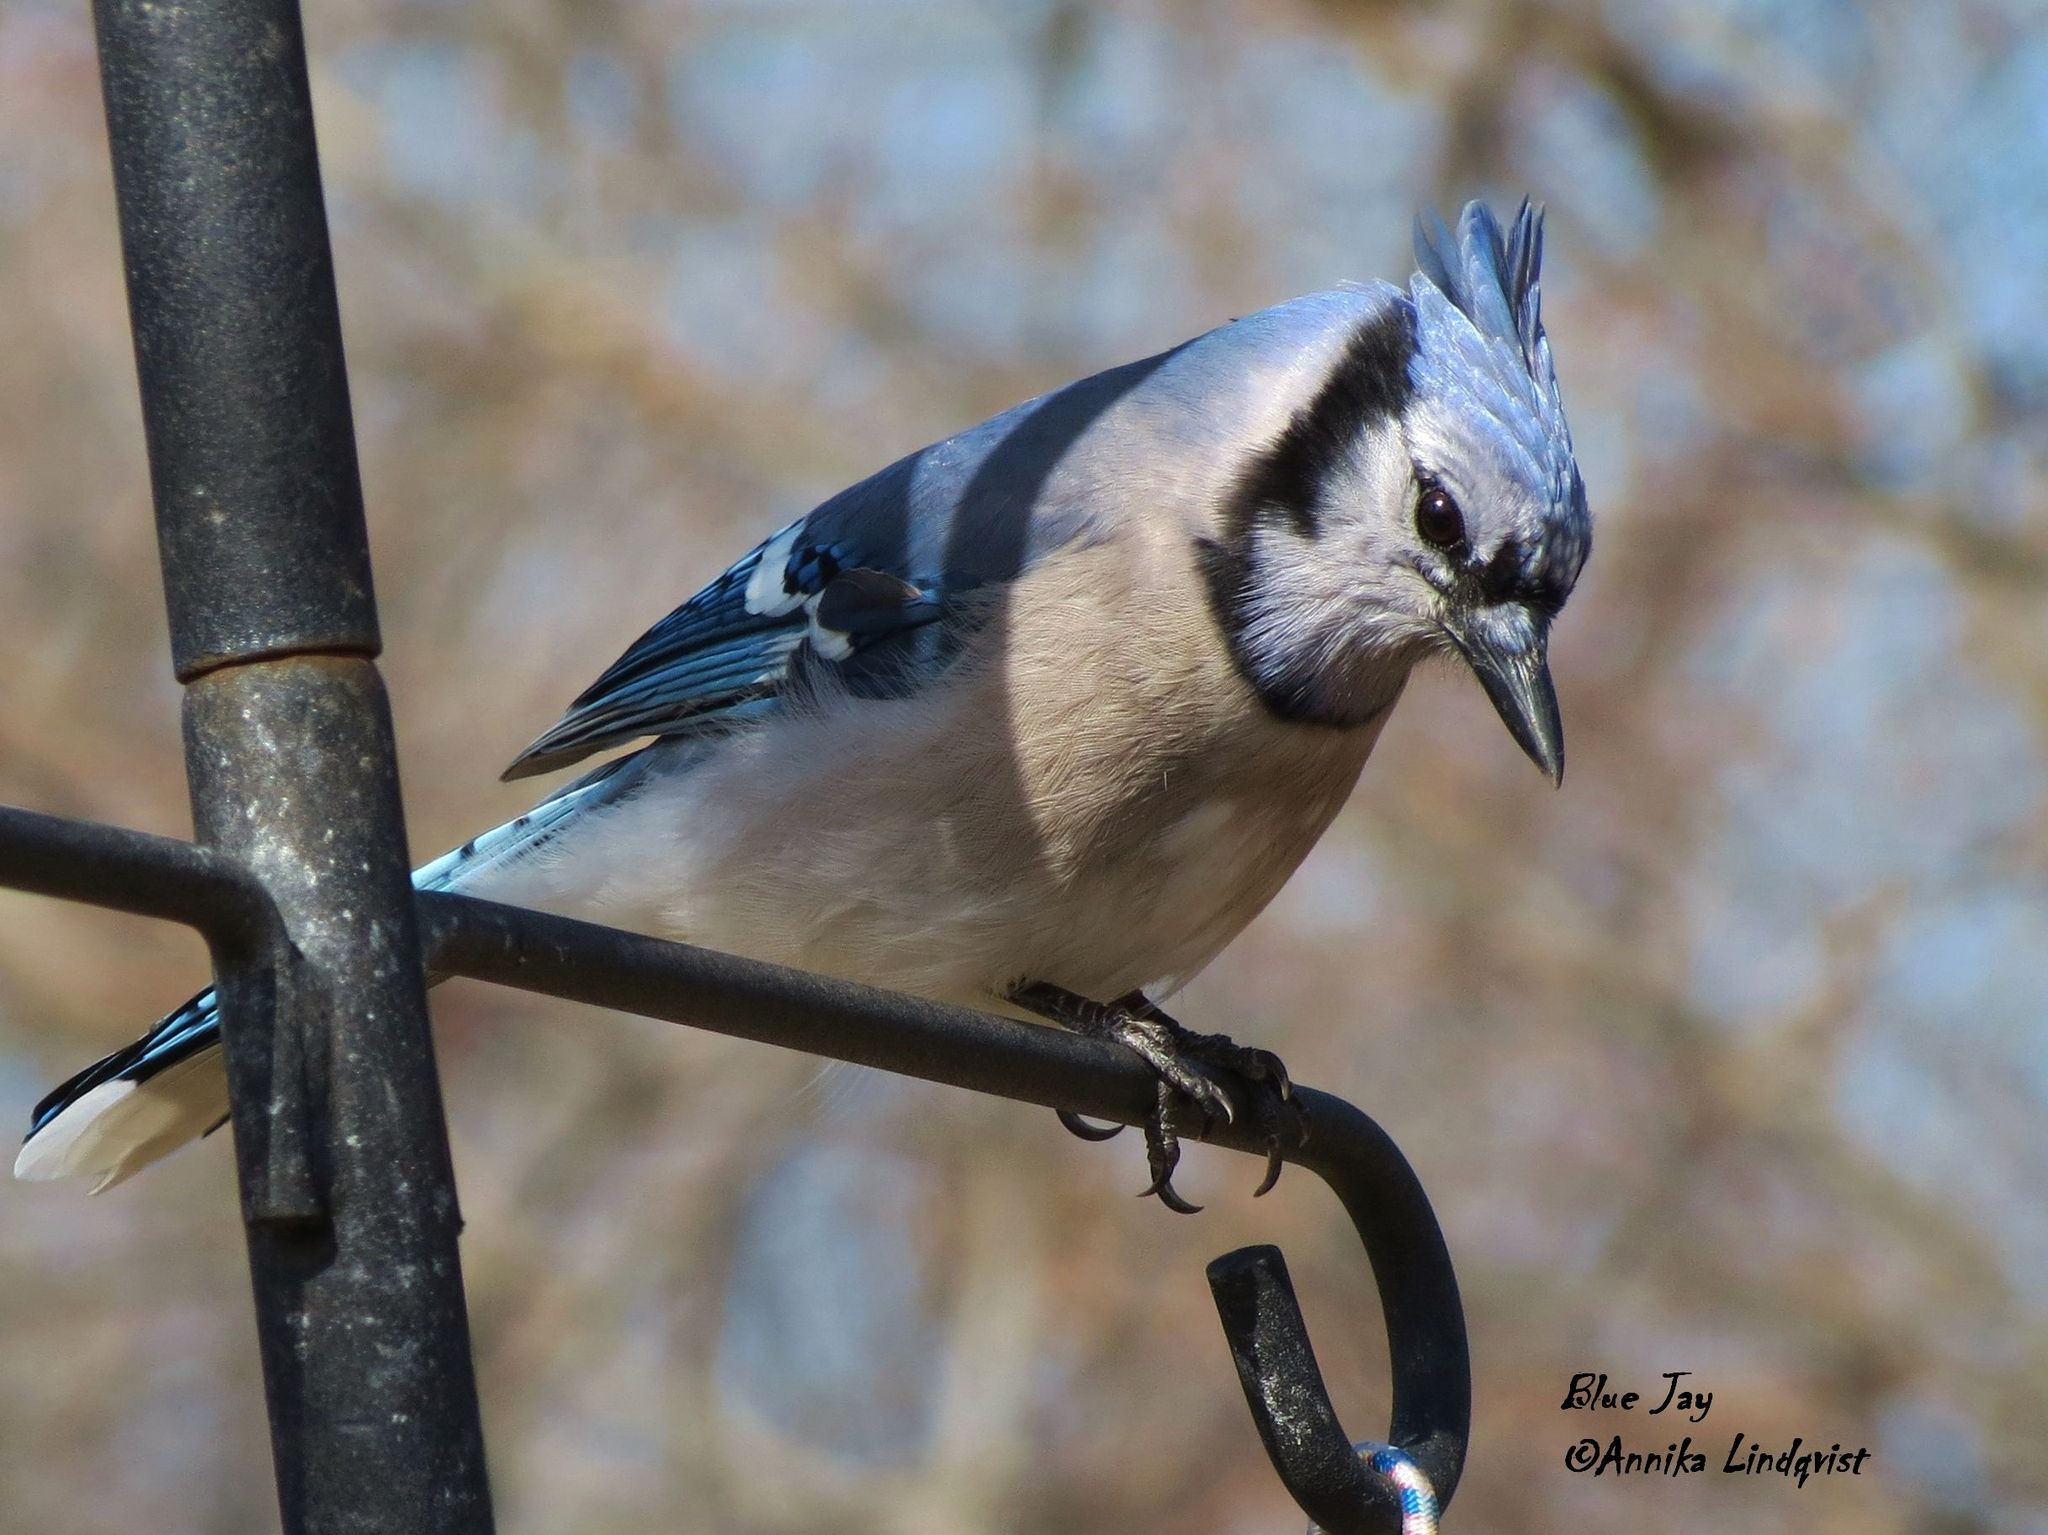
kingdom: Animalia
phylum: Chordata
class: Aves
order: Passeriformes
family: Corvidae
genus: Cyanocitta
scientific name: Cyanocitta cristata
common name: Blue jay
